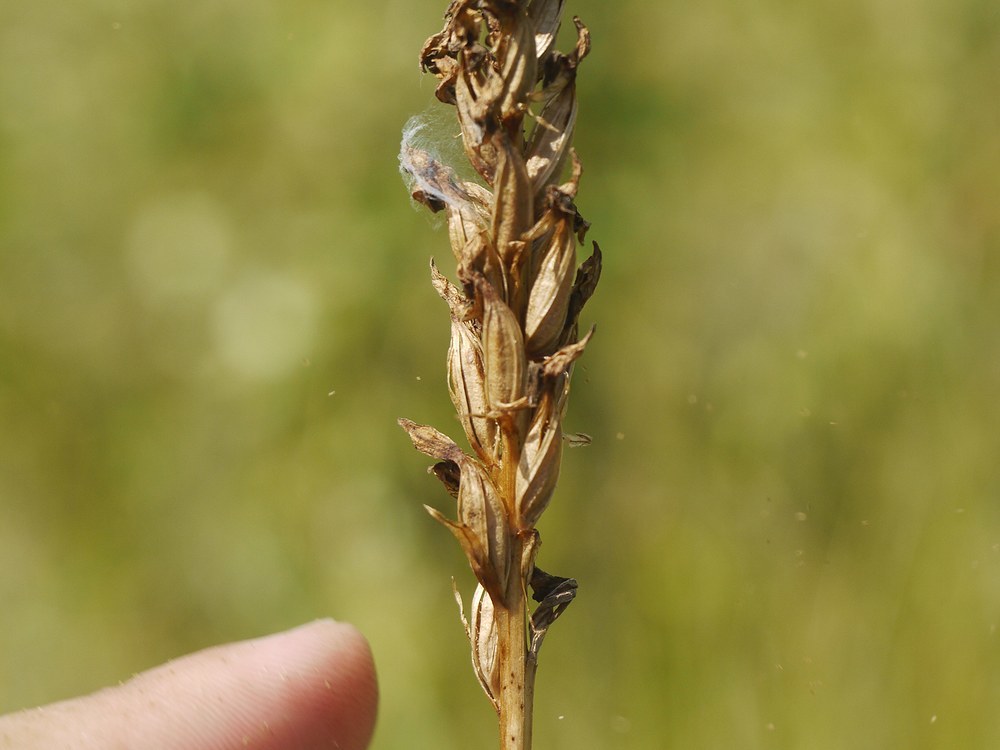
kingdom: Plantae
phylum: Tracheophyta
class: Liliopsida
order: Asparagales
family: Orchidaceae
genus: Anacamptis
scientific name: Anacamptis coriophora
